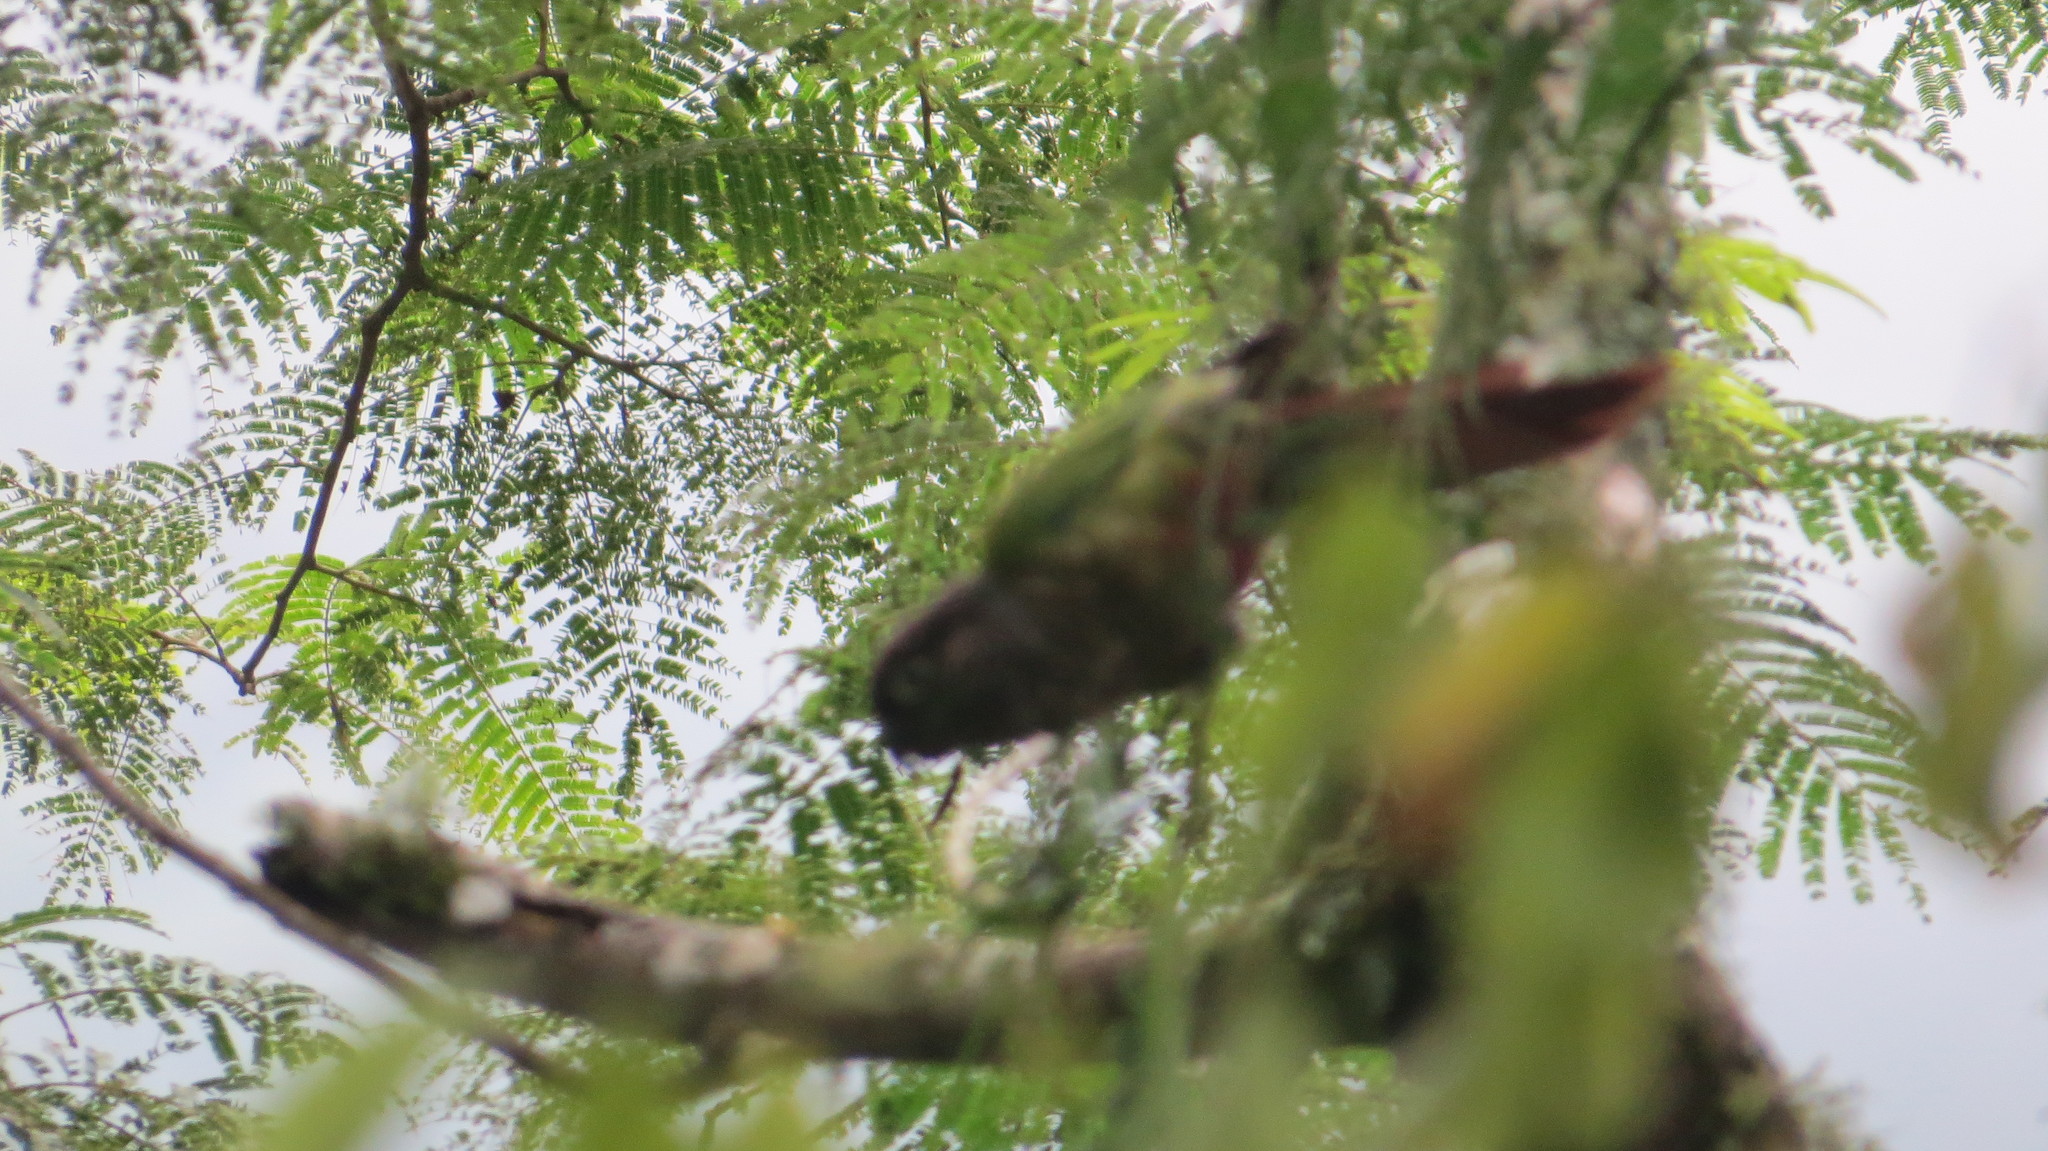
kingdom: Animalia
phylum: Chordata
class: Aves
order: Psittaciformes
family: Psittacidae
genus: Pyrrhura
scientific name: Pyrrhura molinae
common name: Green-cheeked parakeet
